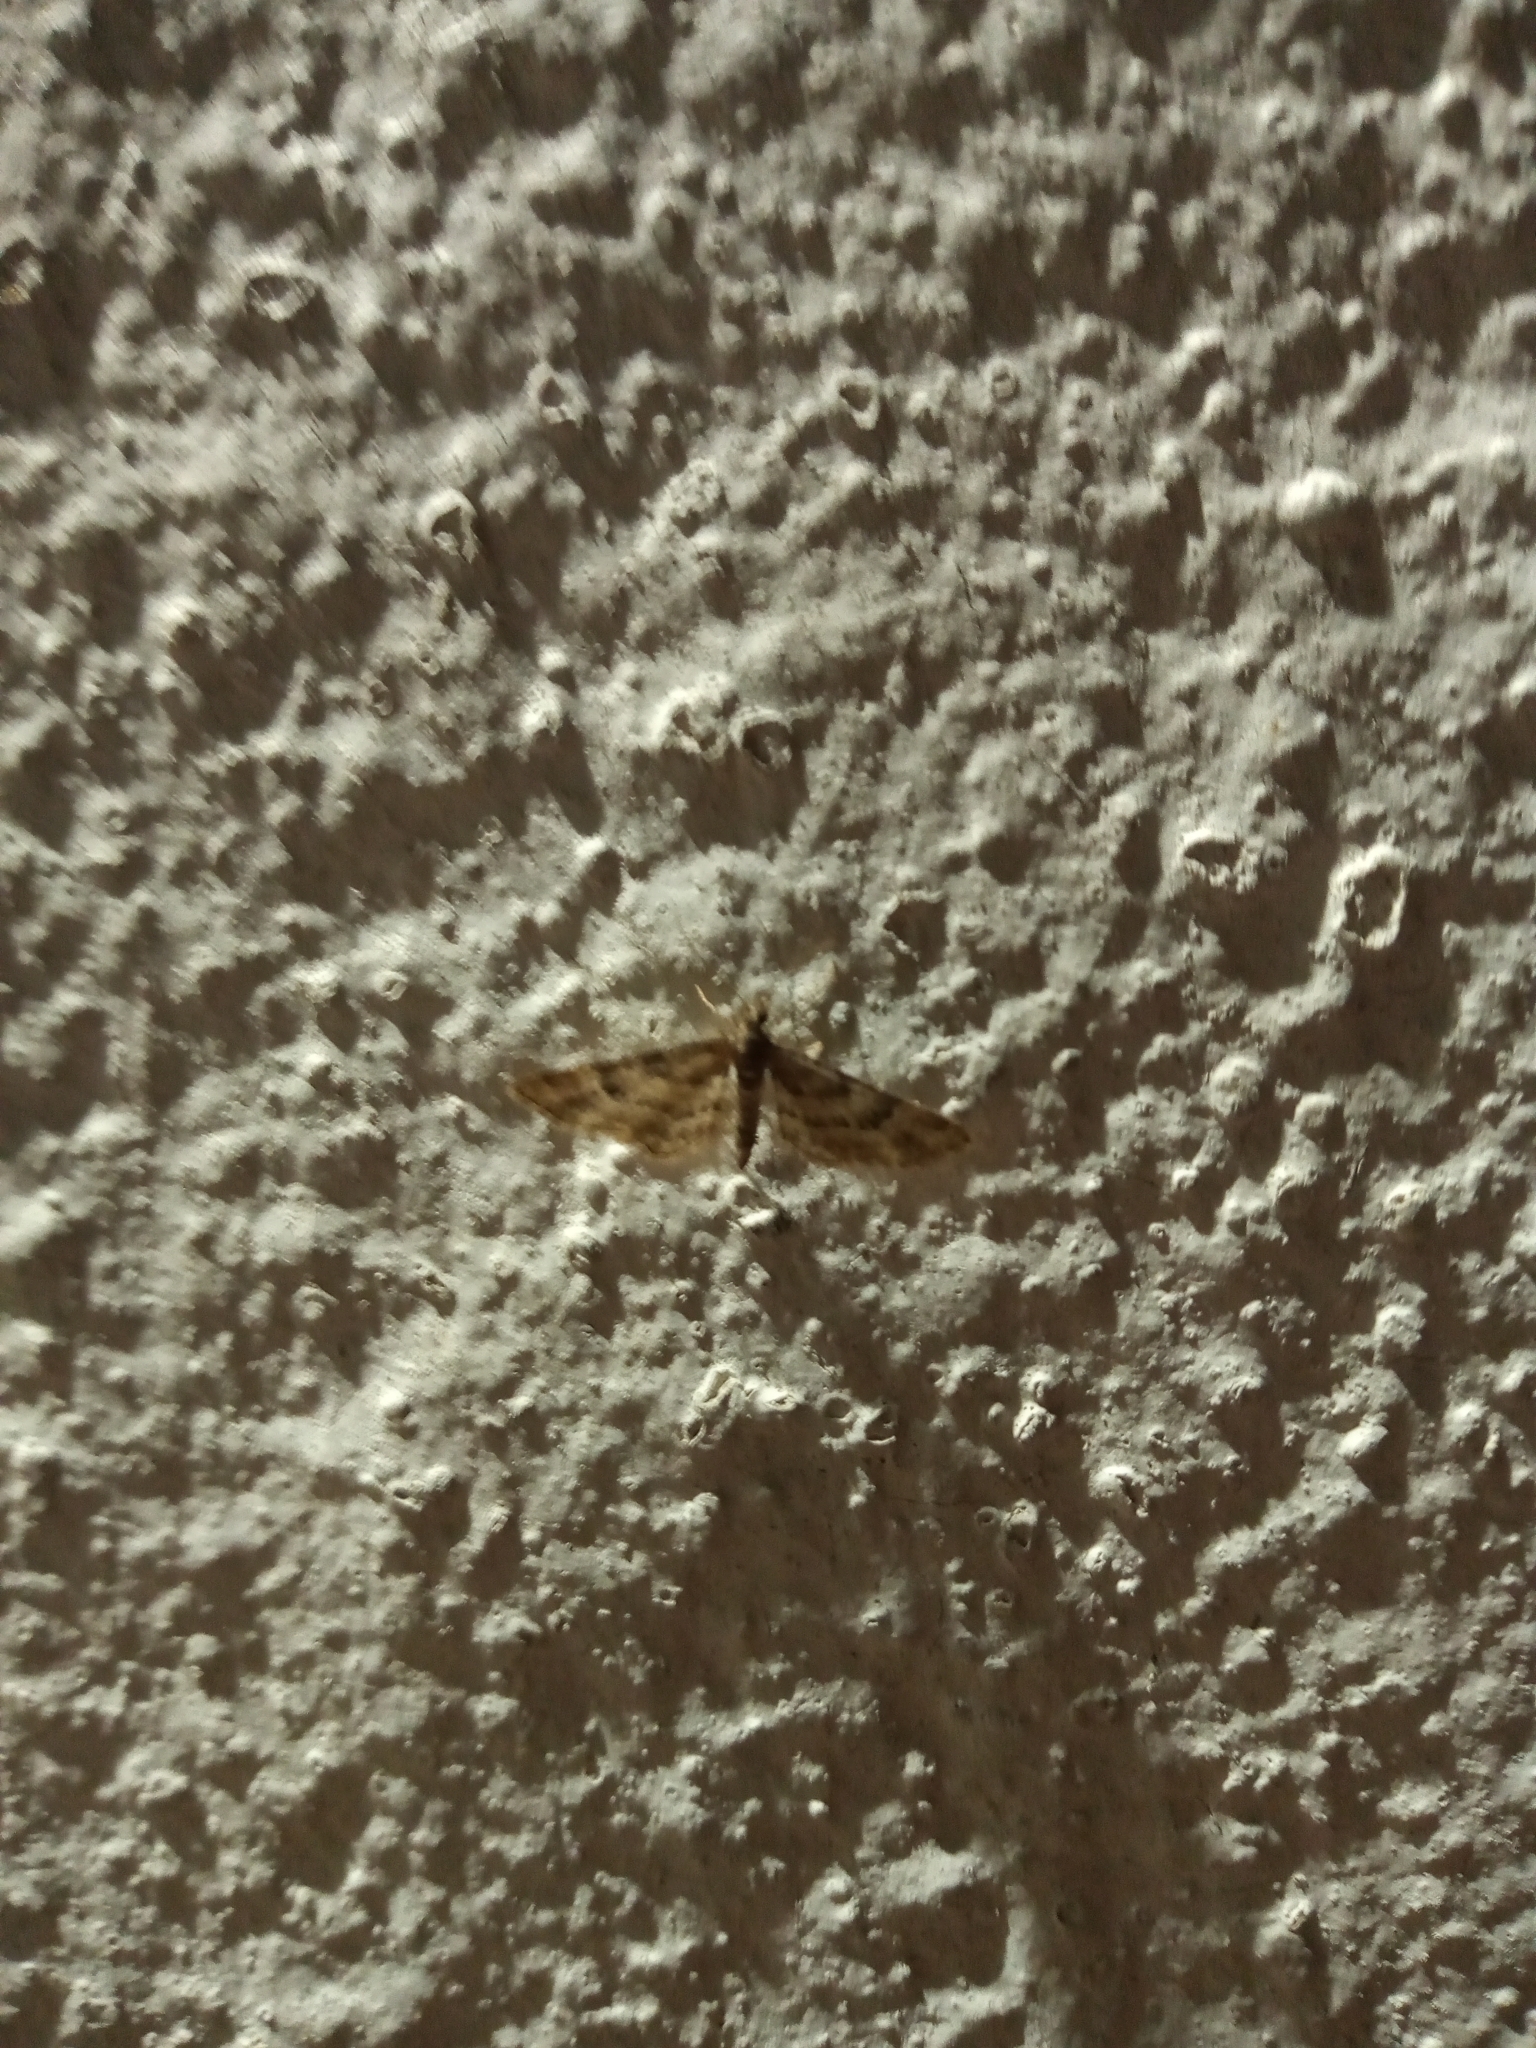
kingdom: Animalia
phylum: Arthropoda
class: Insecta
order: Lepidoptera
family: Geometridae
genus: Gymnoscelis
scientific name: Gymnoscelis rufifasciata
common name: Double-striped pug
